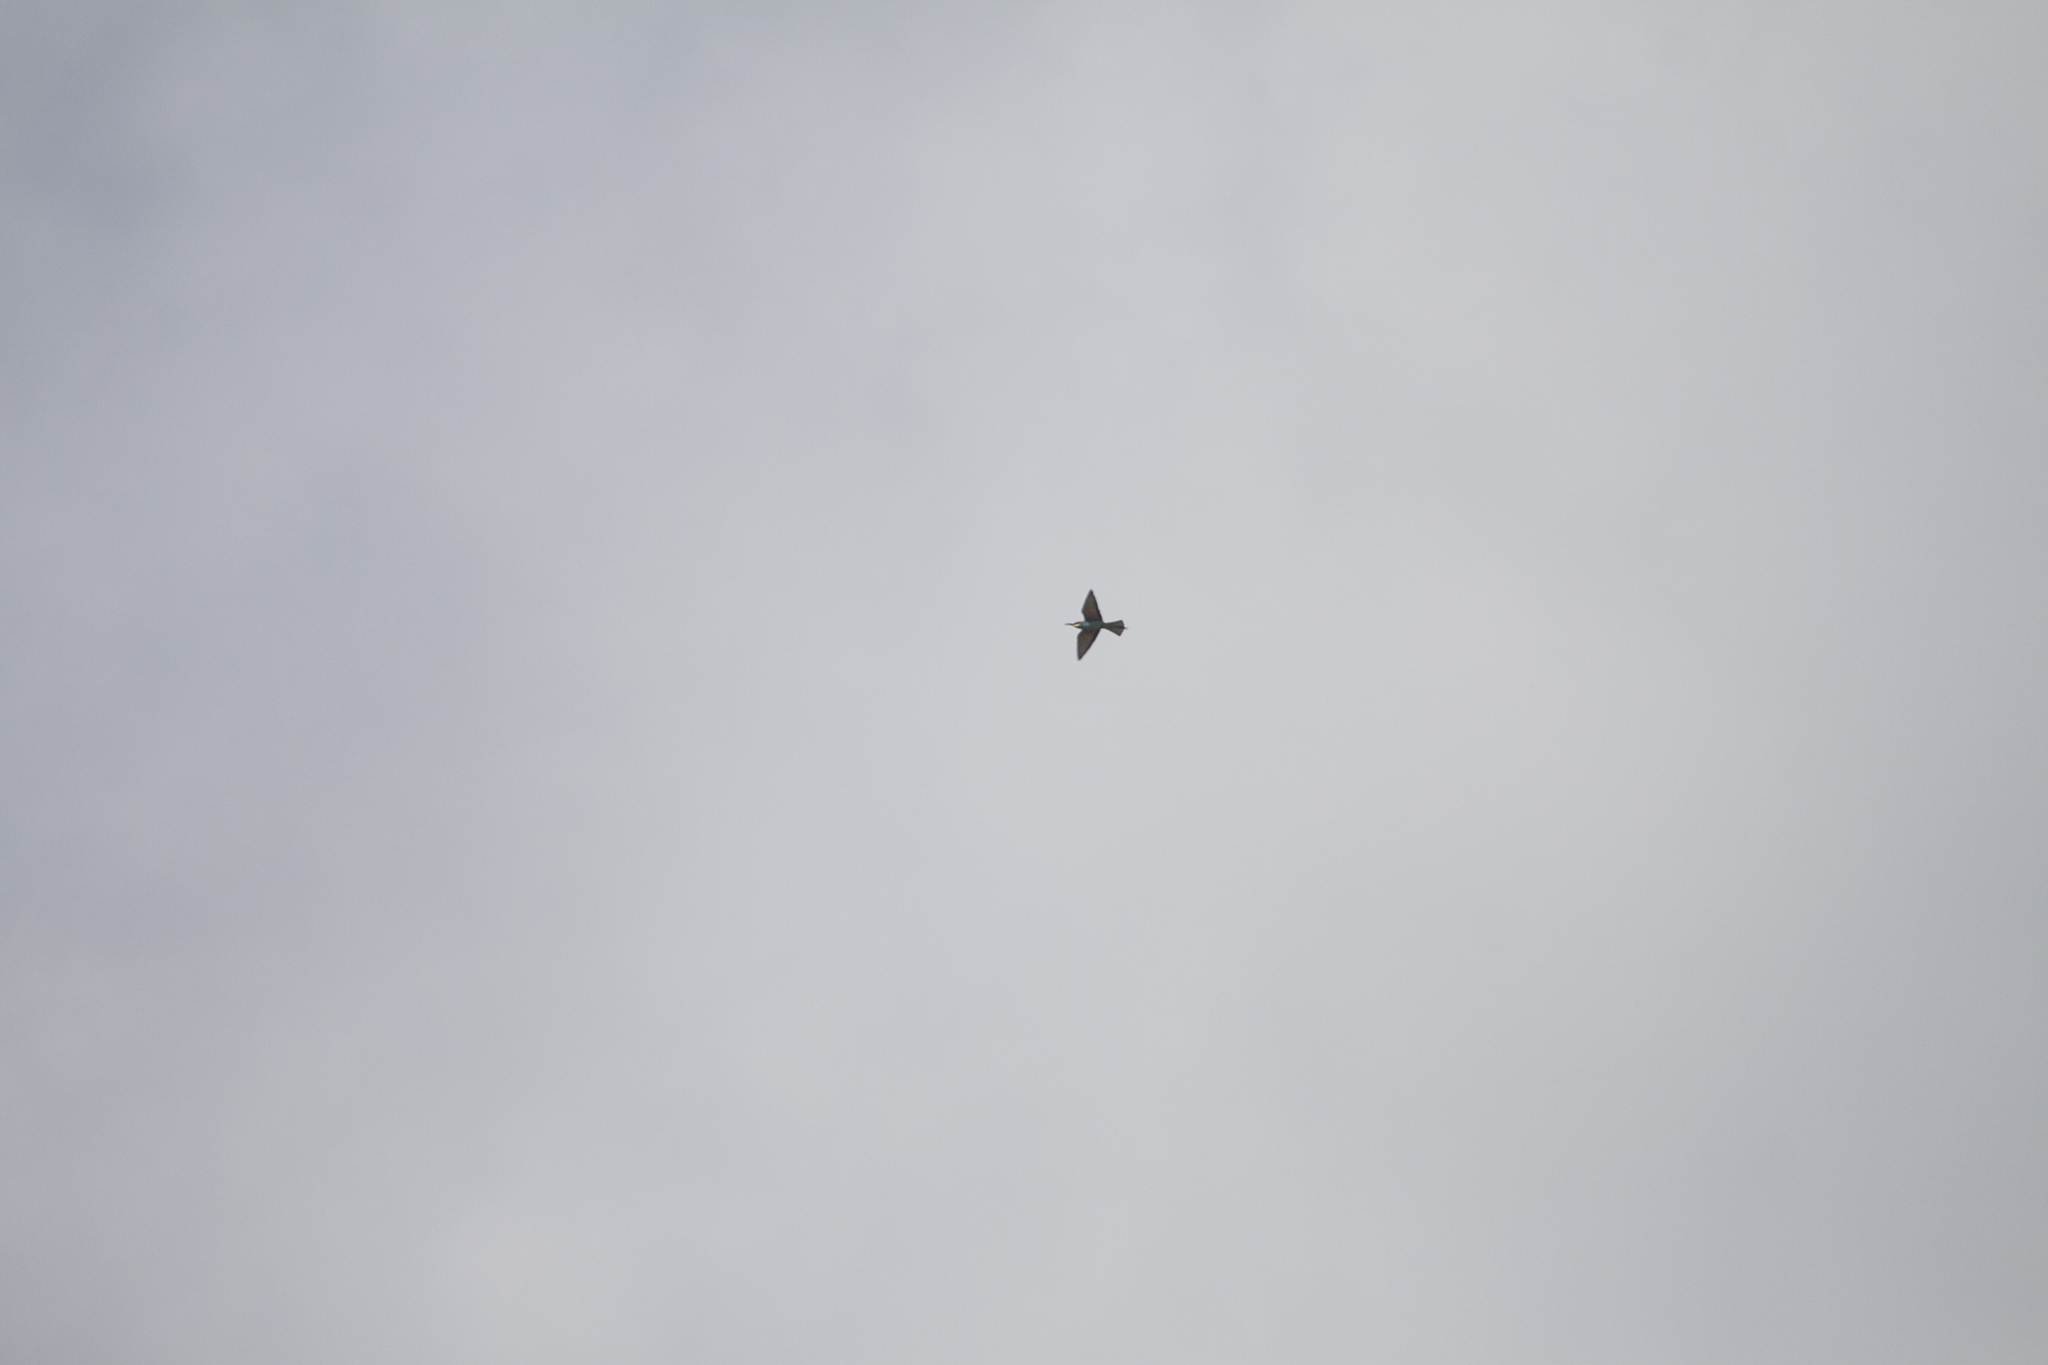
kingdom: Animalia
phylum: Chordata
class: Aves
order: Coraciiformes
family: Meropidae
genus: Merops
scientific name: Merops apiaster
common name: European bee-eater
